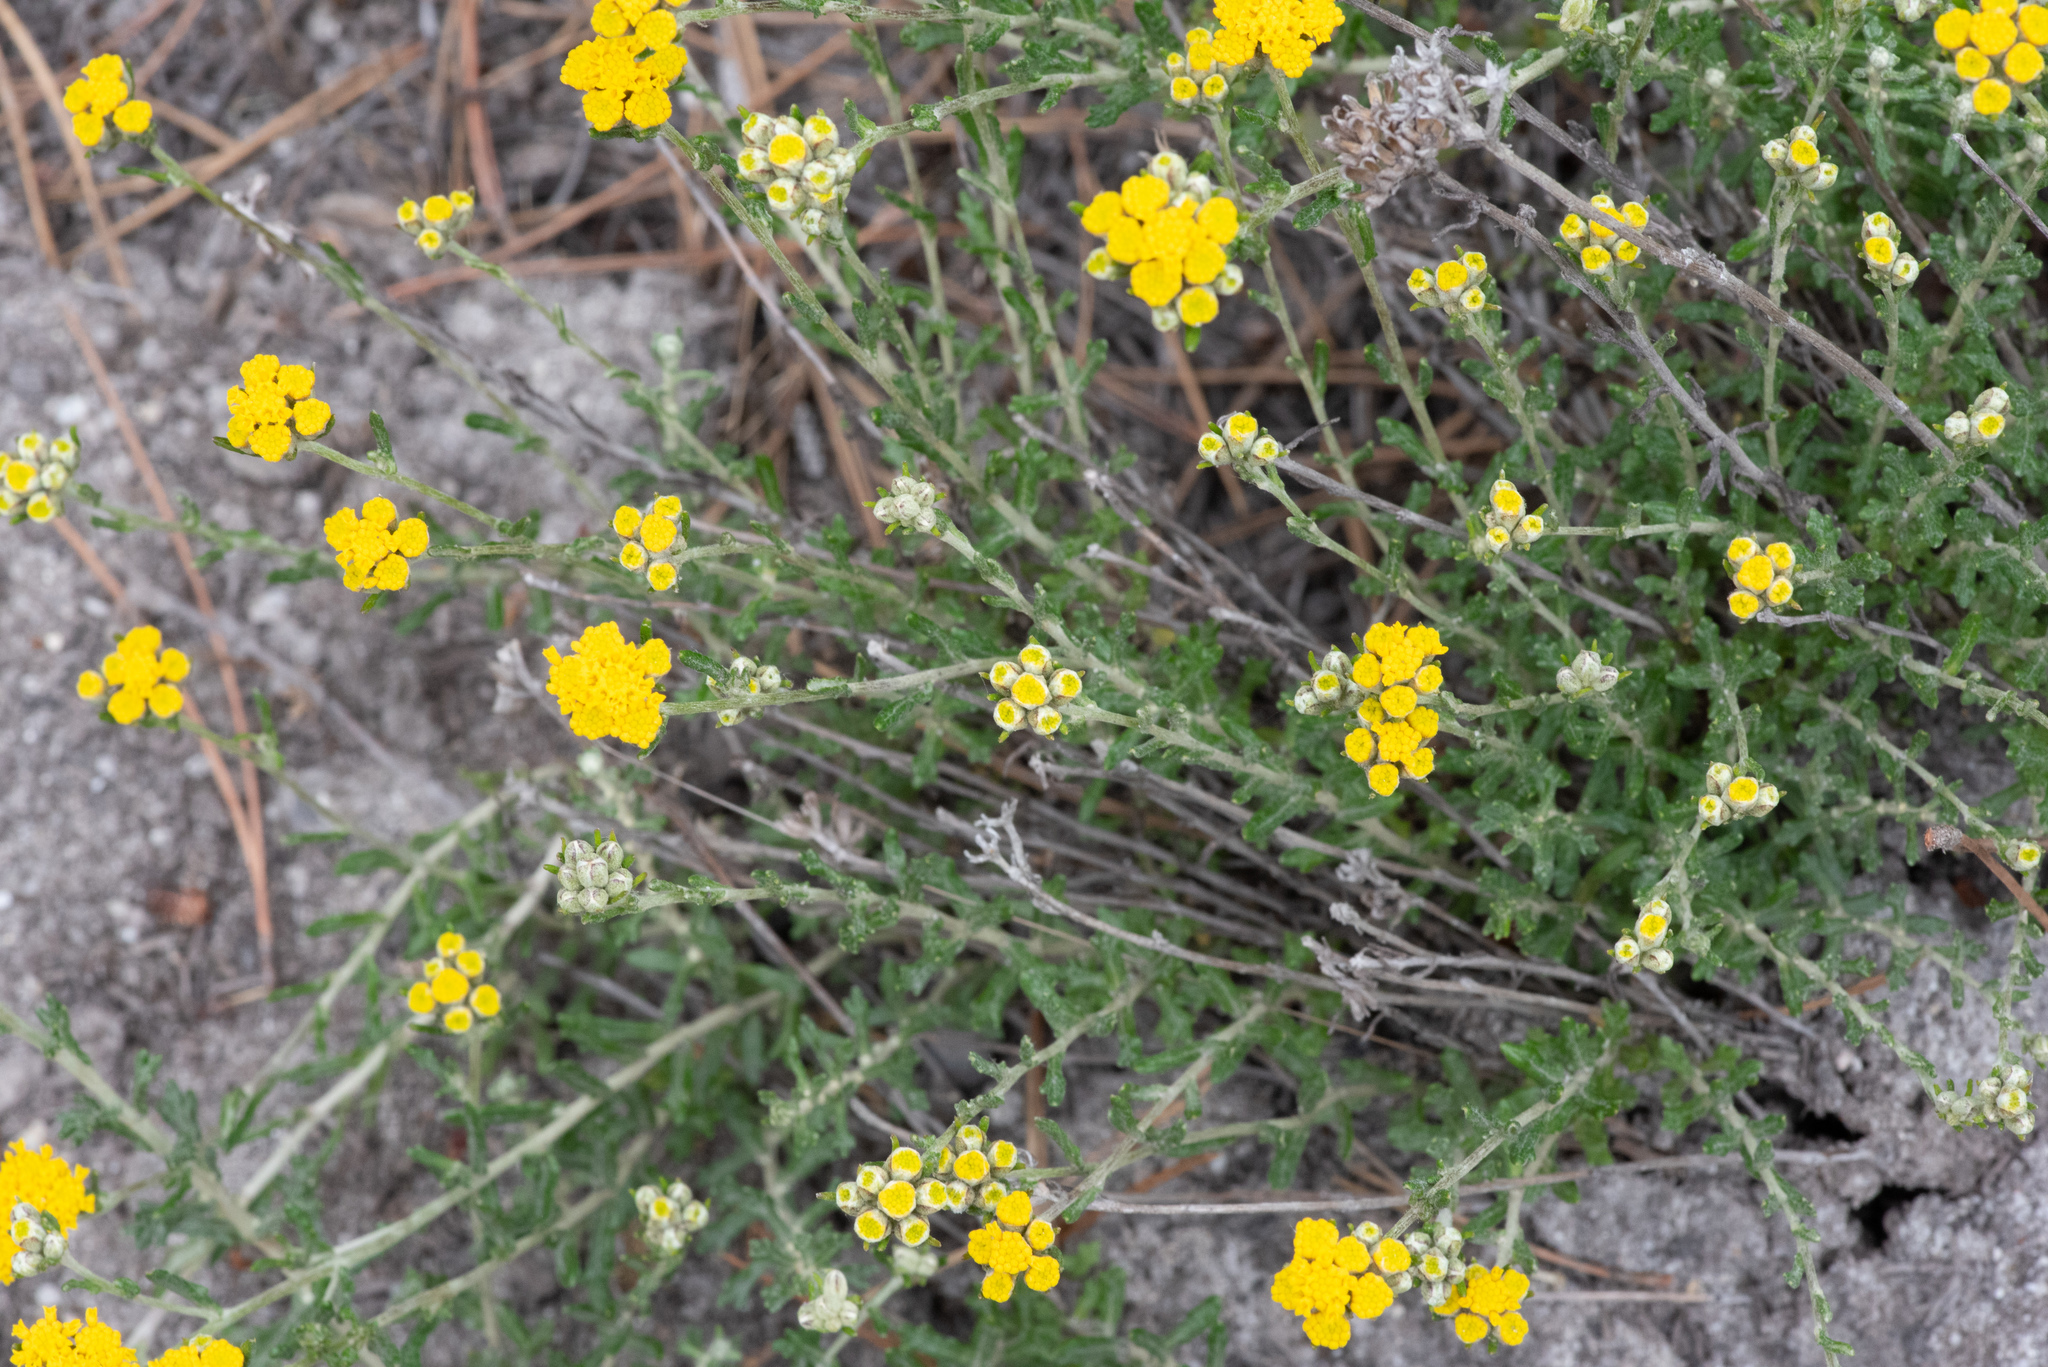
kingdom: Plantae
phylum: Tracheophyta
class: Magnoliopsida
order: Asterales
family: Asteraceae
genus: Eriophyllum
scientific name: Eriophyllum confertiflorum
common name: Golden-yarrow
